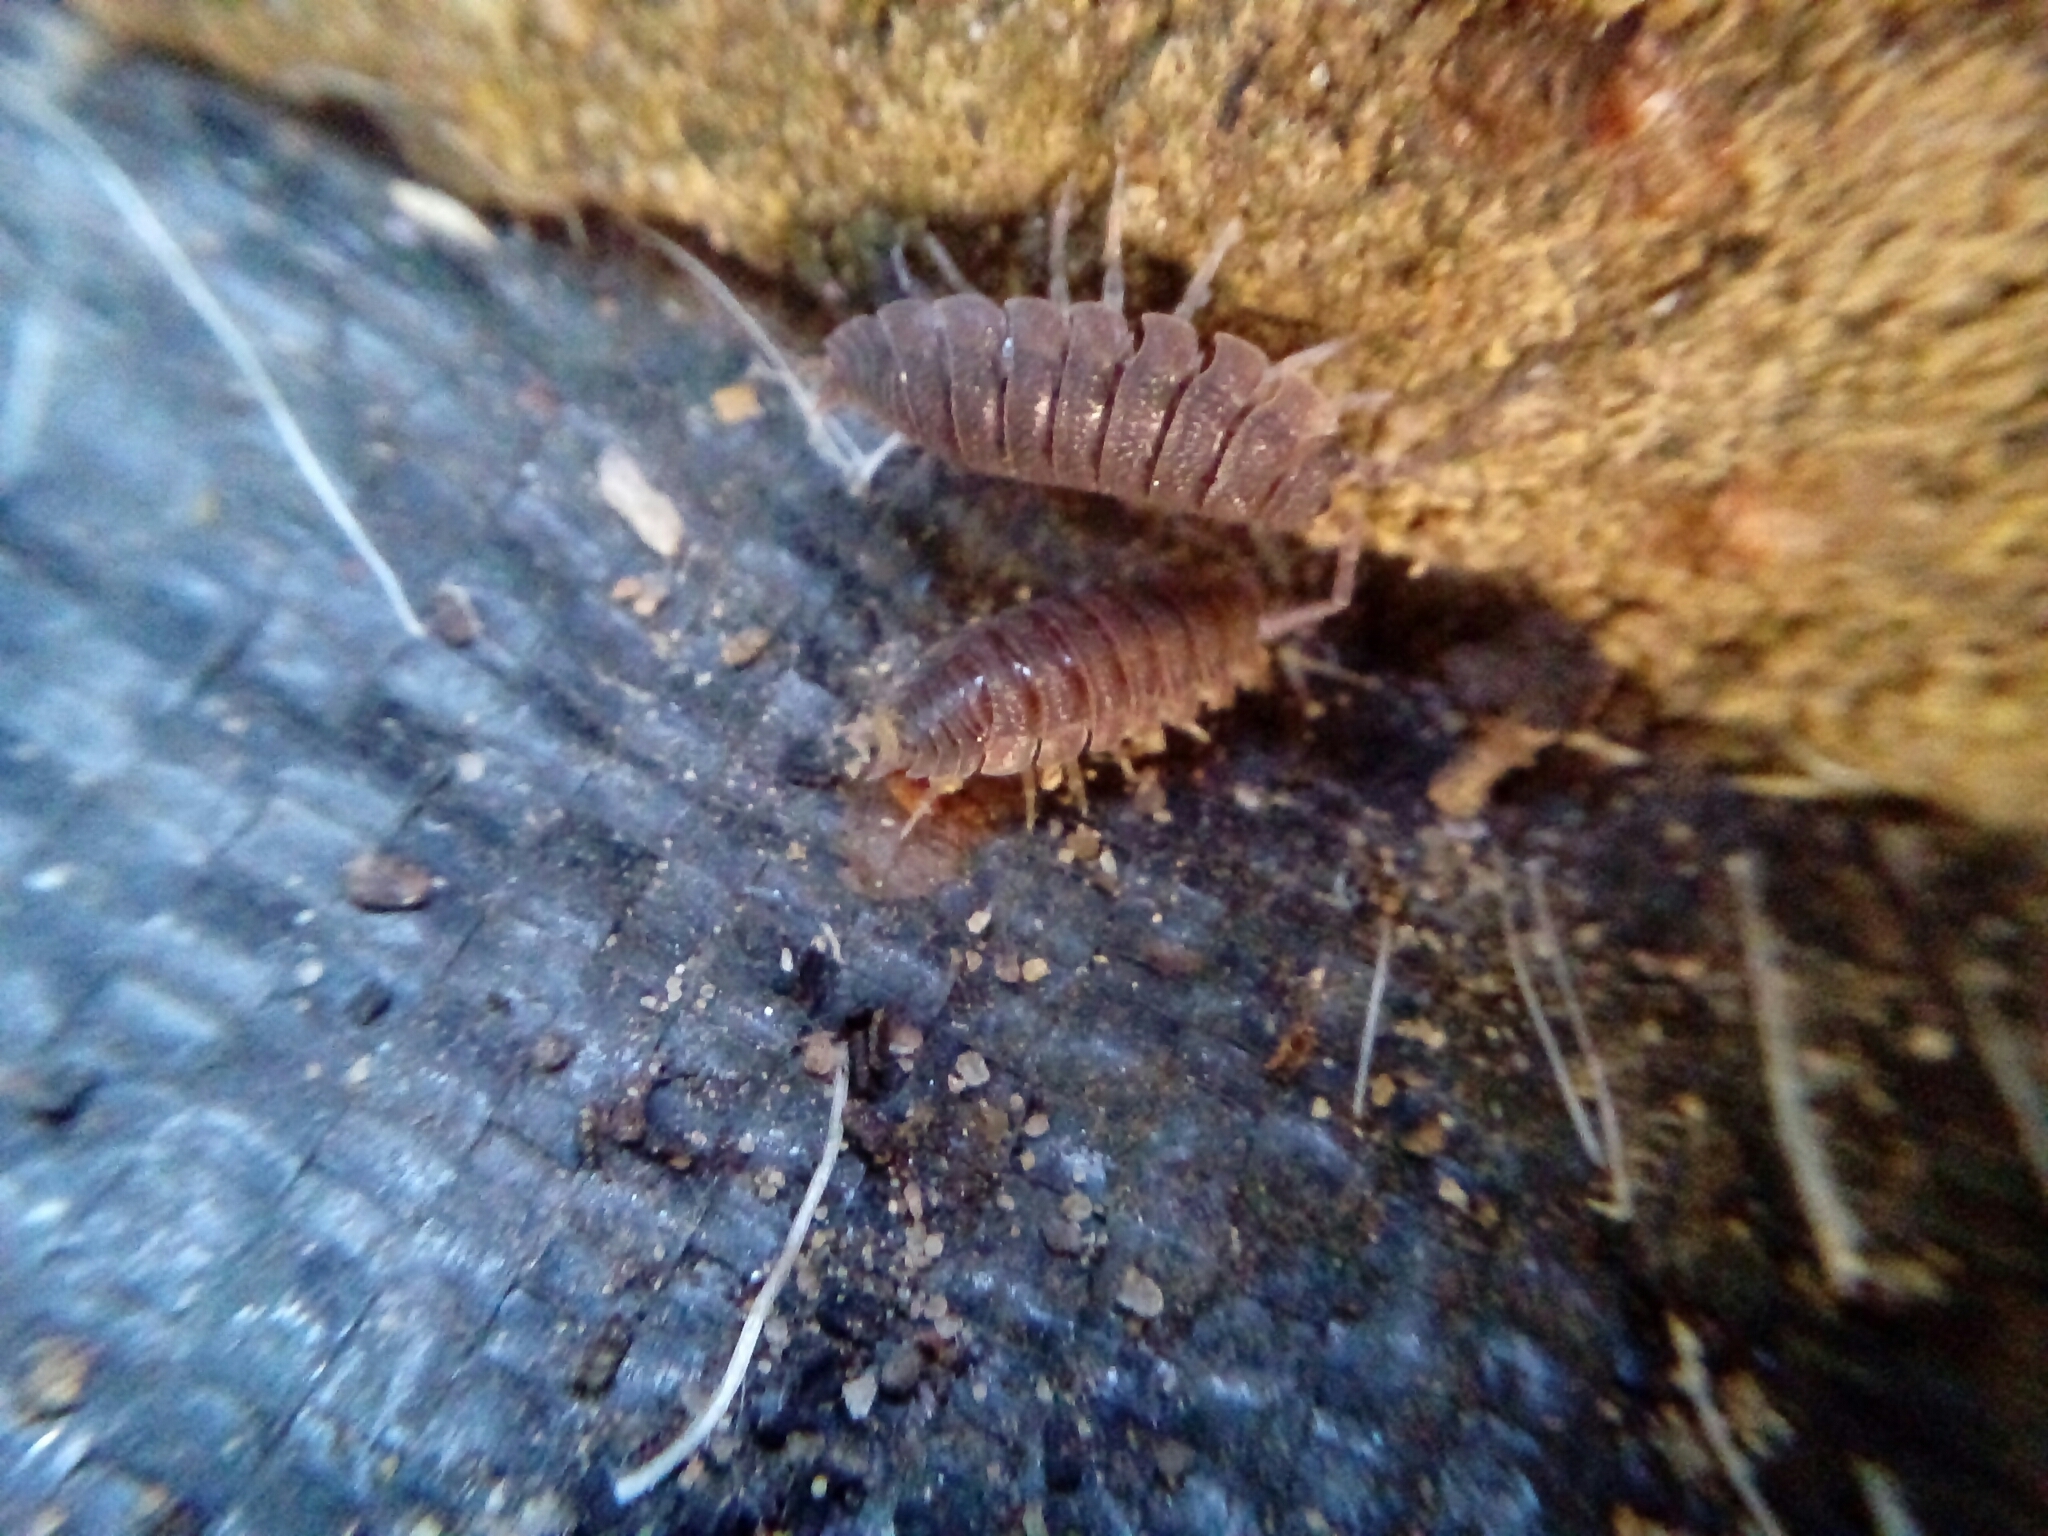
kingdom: Animalia
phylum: Arthropoda
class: Malacostraca
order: Isopoda
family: Porcellionidae
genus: Porcellio
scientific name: Porcellio scaber
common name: Common rough woodlouse
